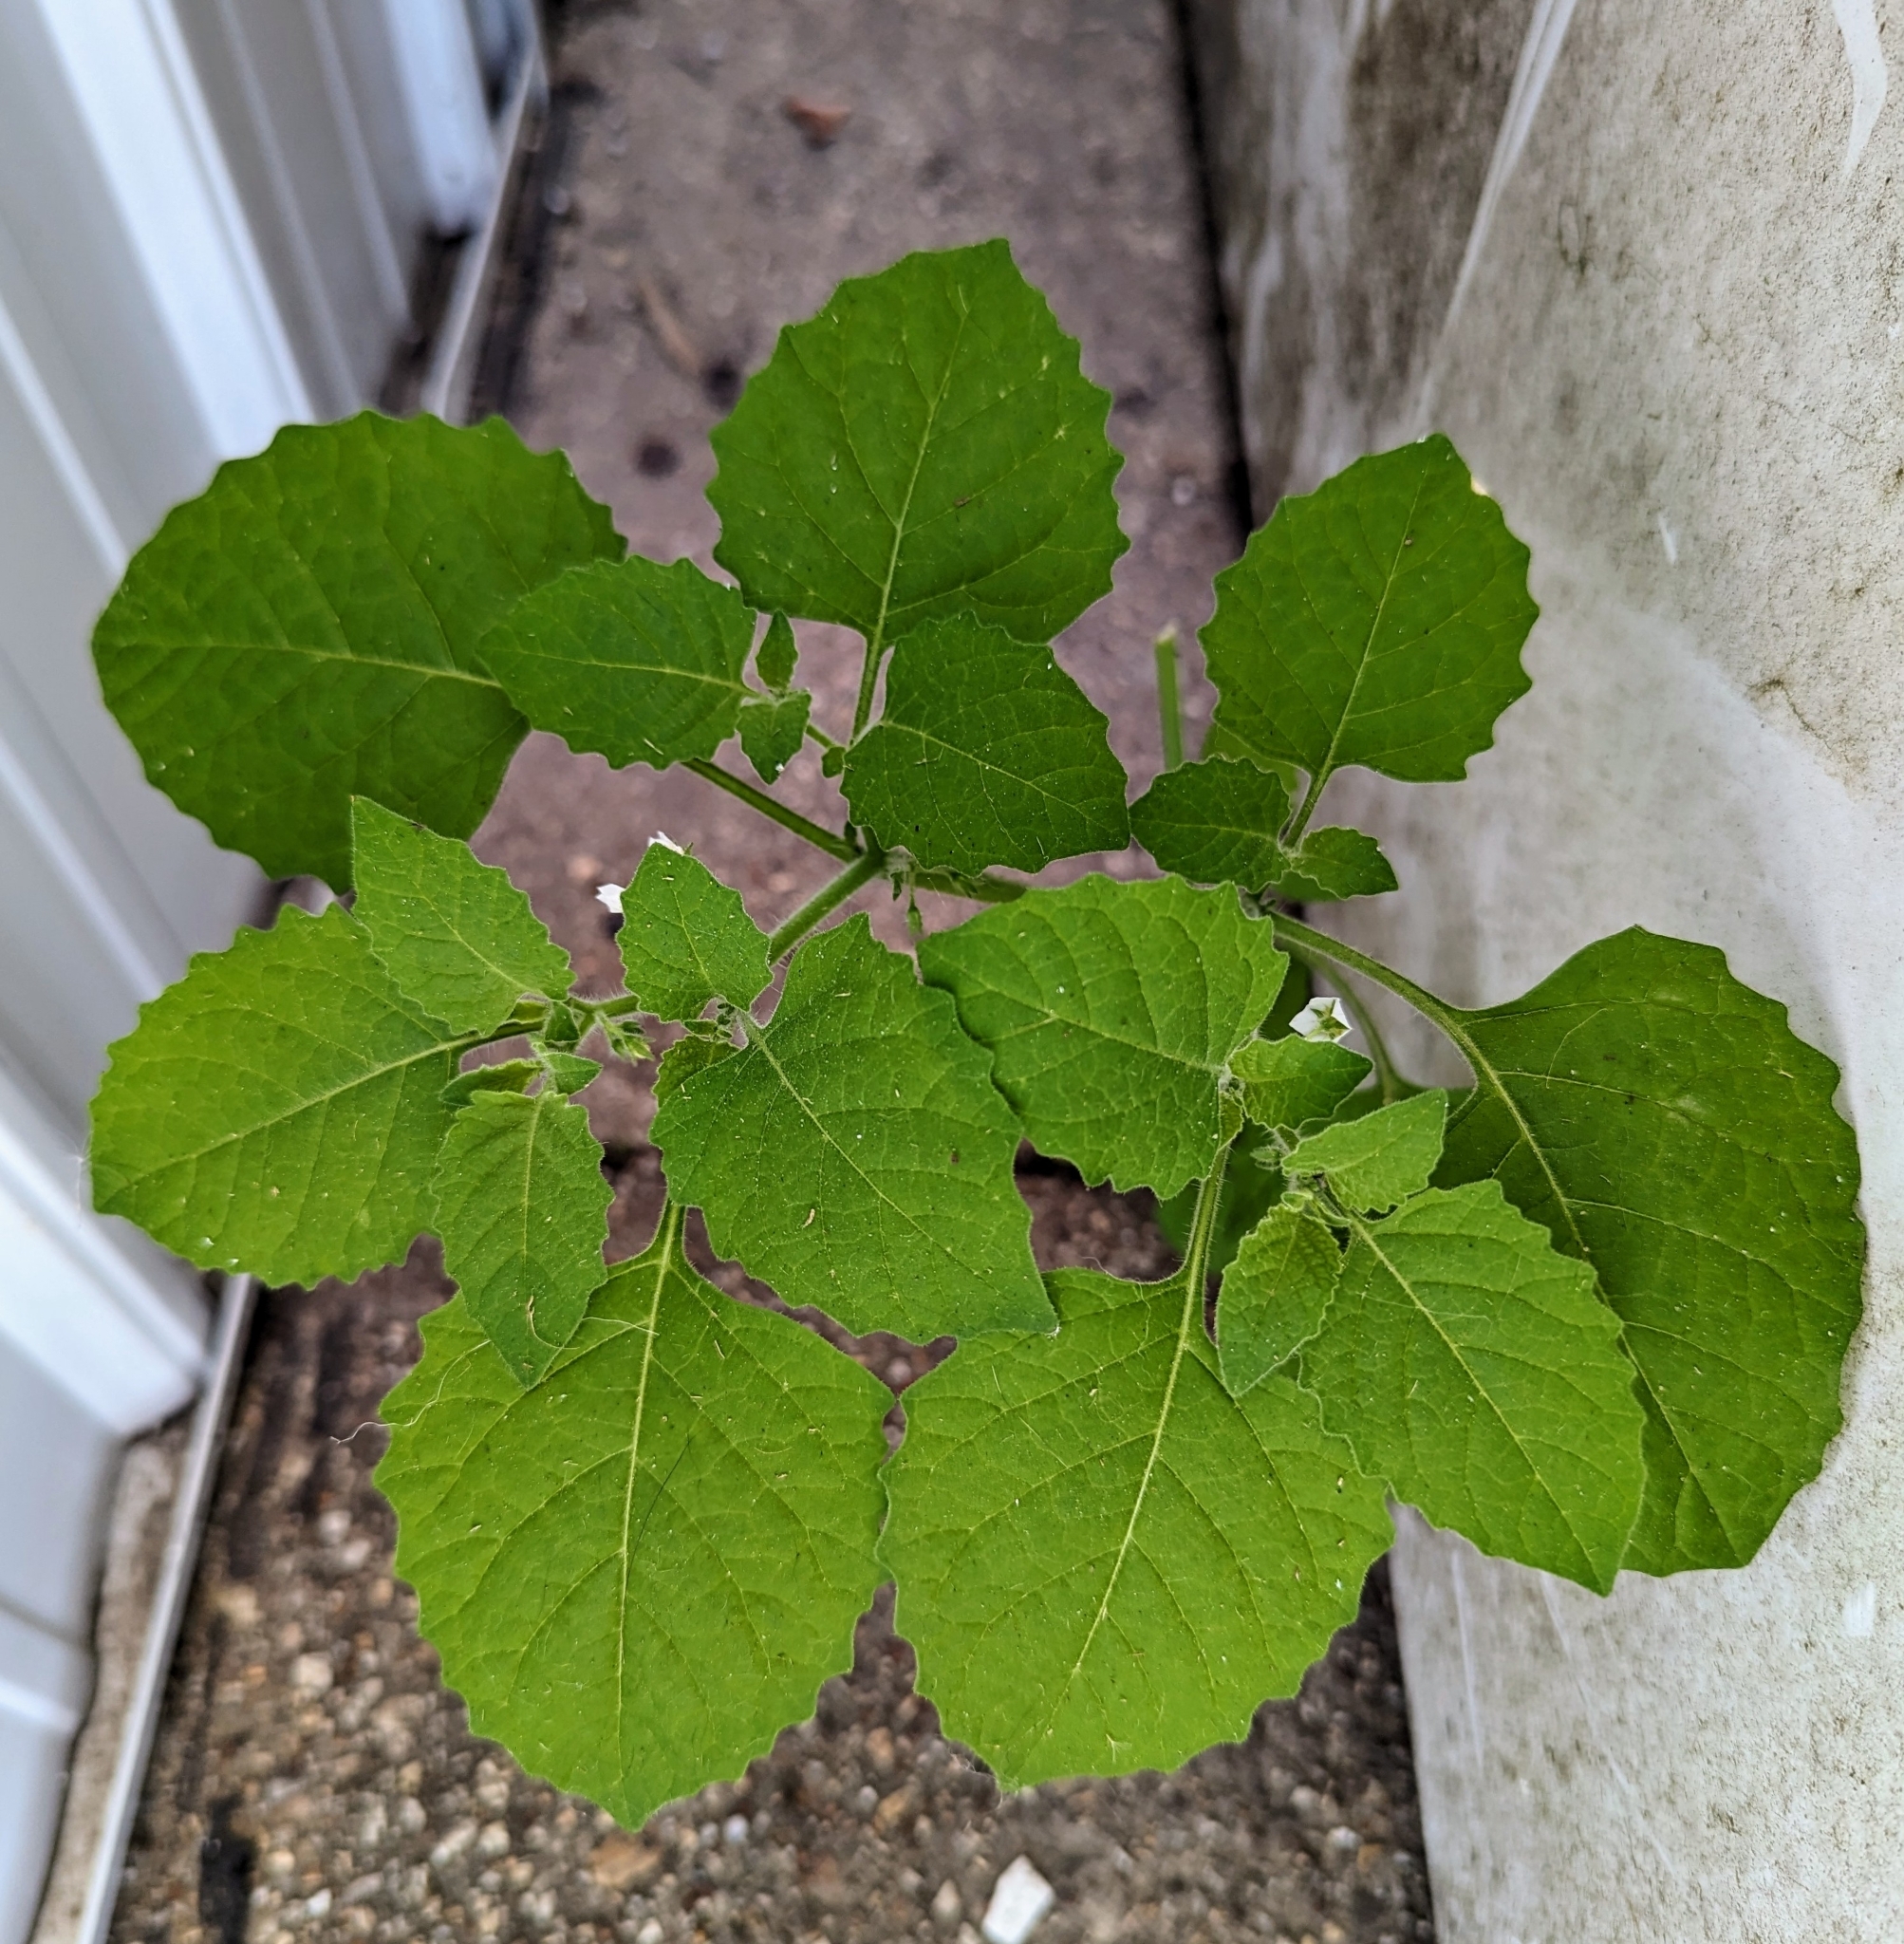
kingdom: Plantae
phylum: Tracheophyta
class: Magnoliopsida
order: Solanales
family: Solanaceae
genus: Solanum
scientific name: Solanum sarrachoides
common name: Leafy-fruited nightshade
